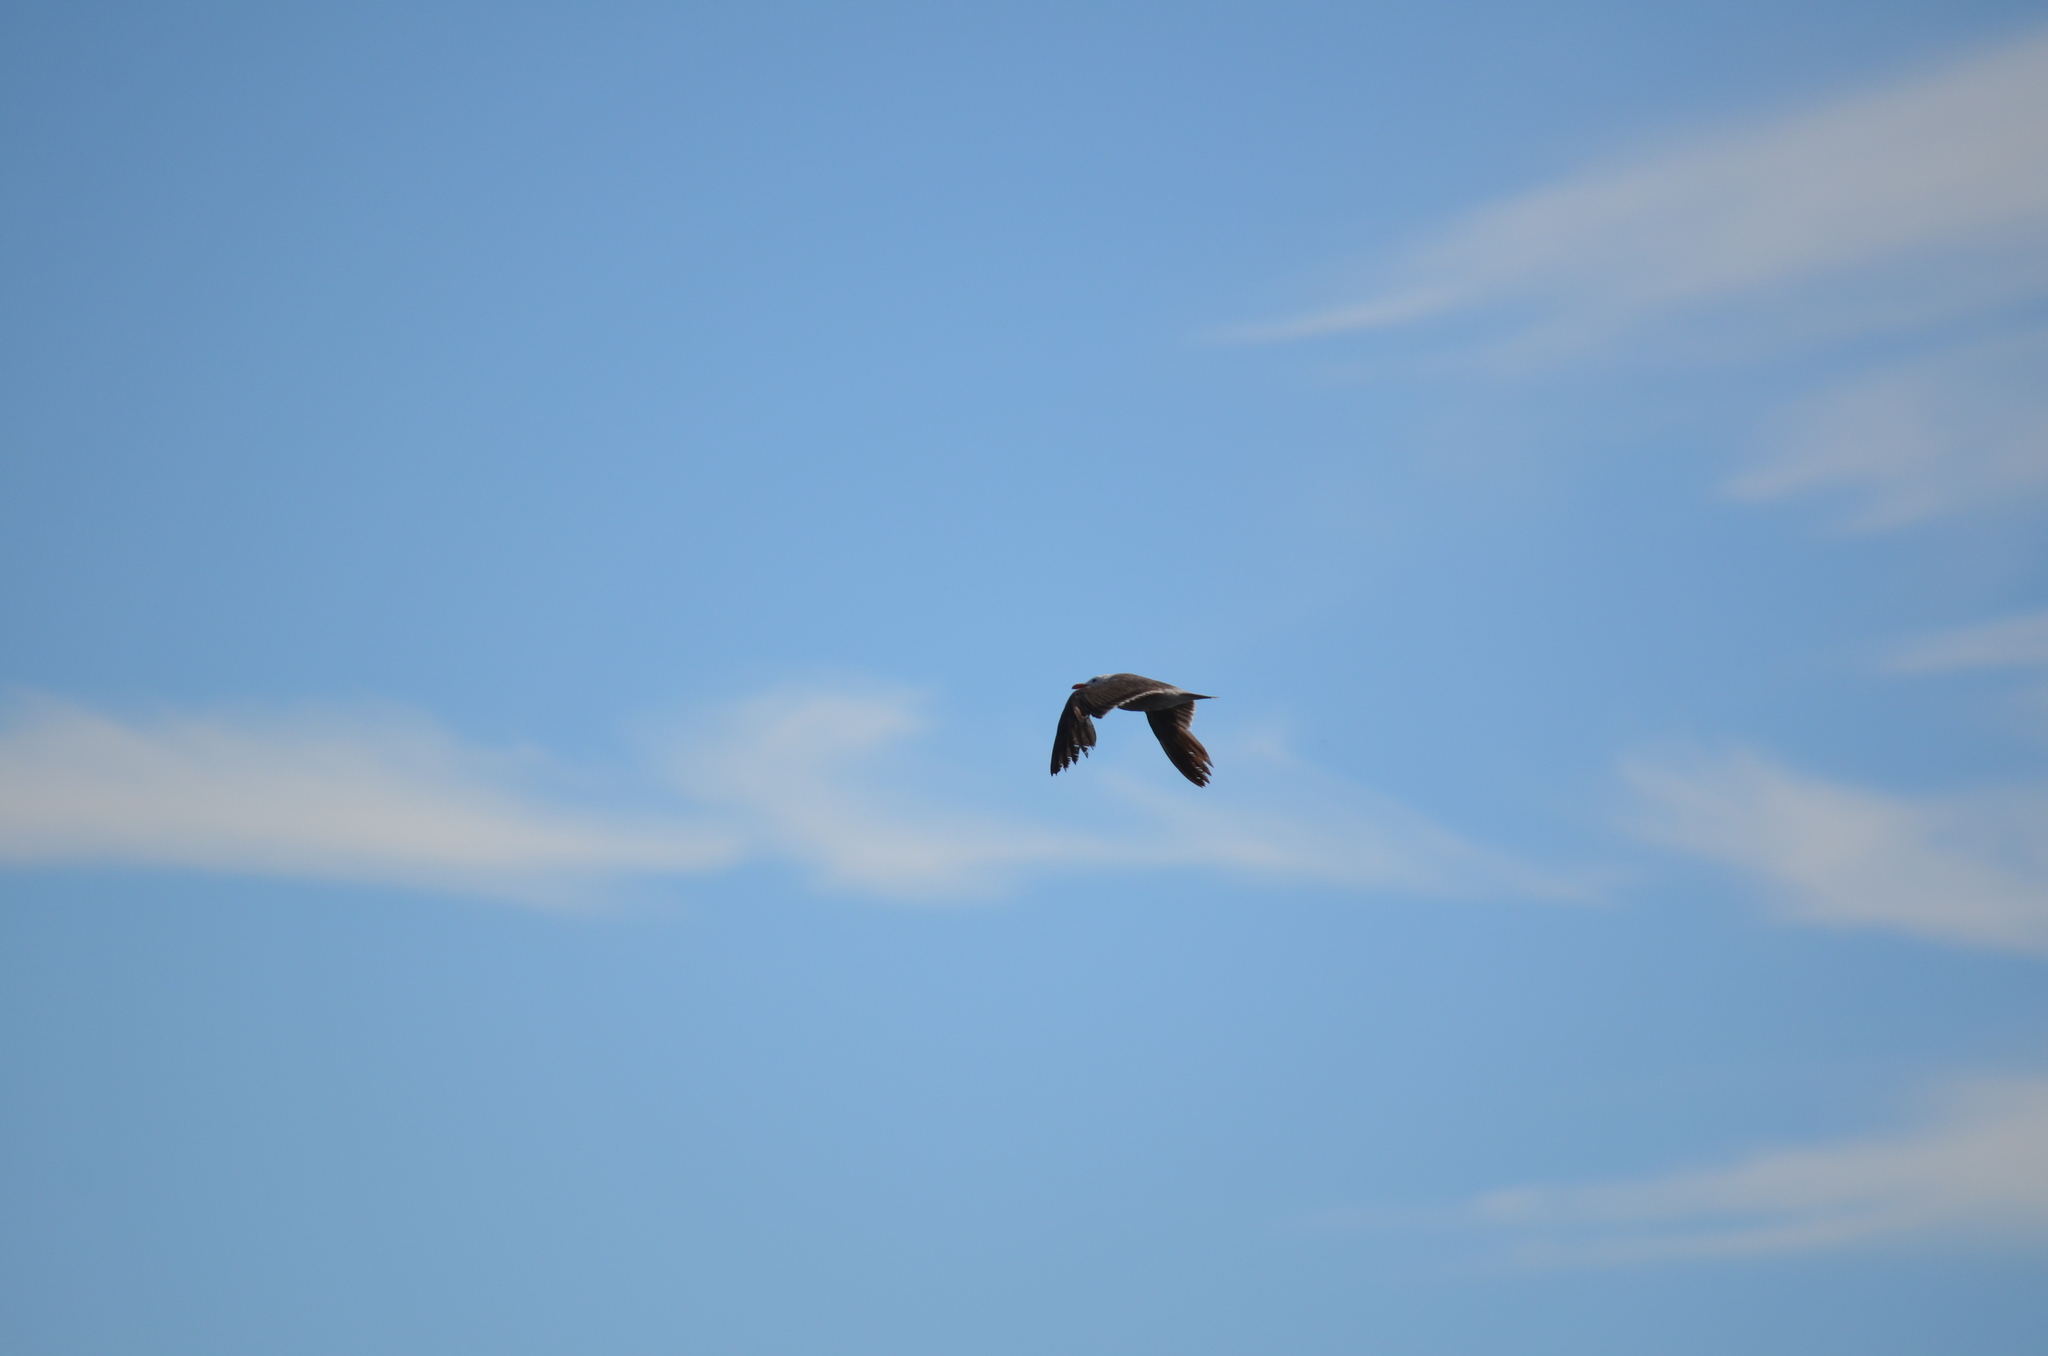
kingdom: Animalia
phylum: Chordata
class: Aves
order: Charadriiformes
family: Laridae
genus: Larus
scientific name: Larus heermanni
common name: Heermann's gull
